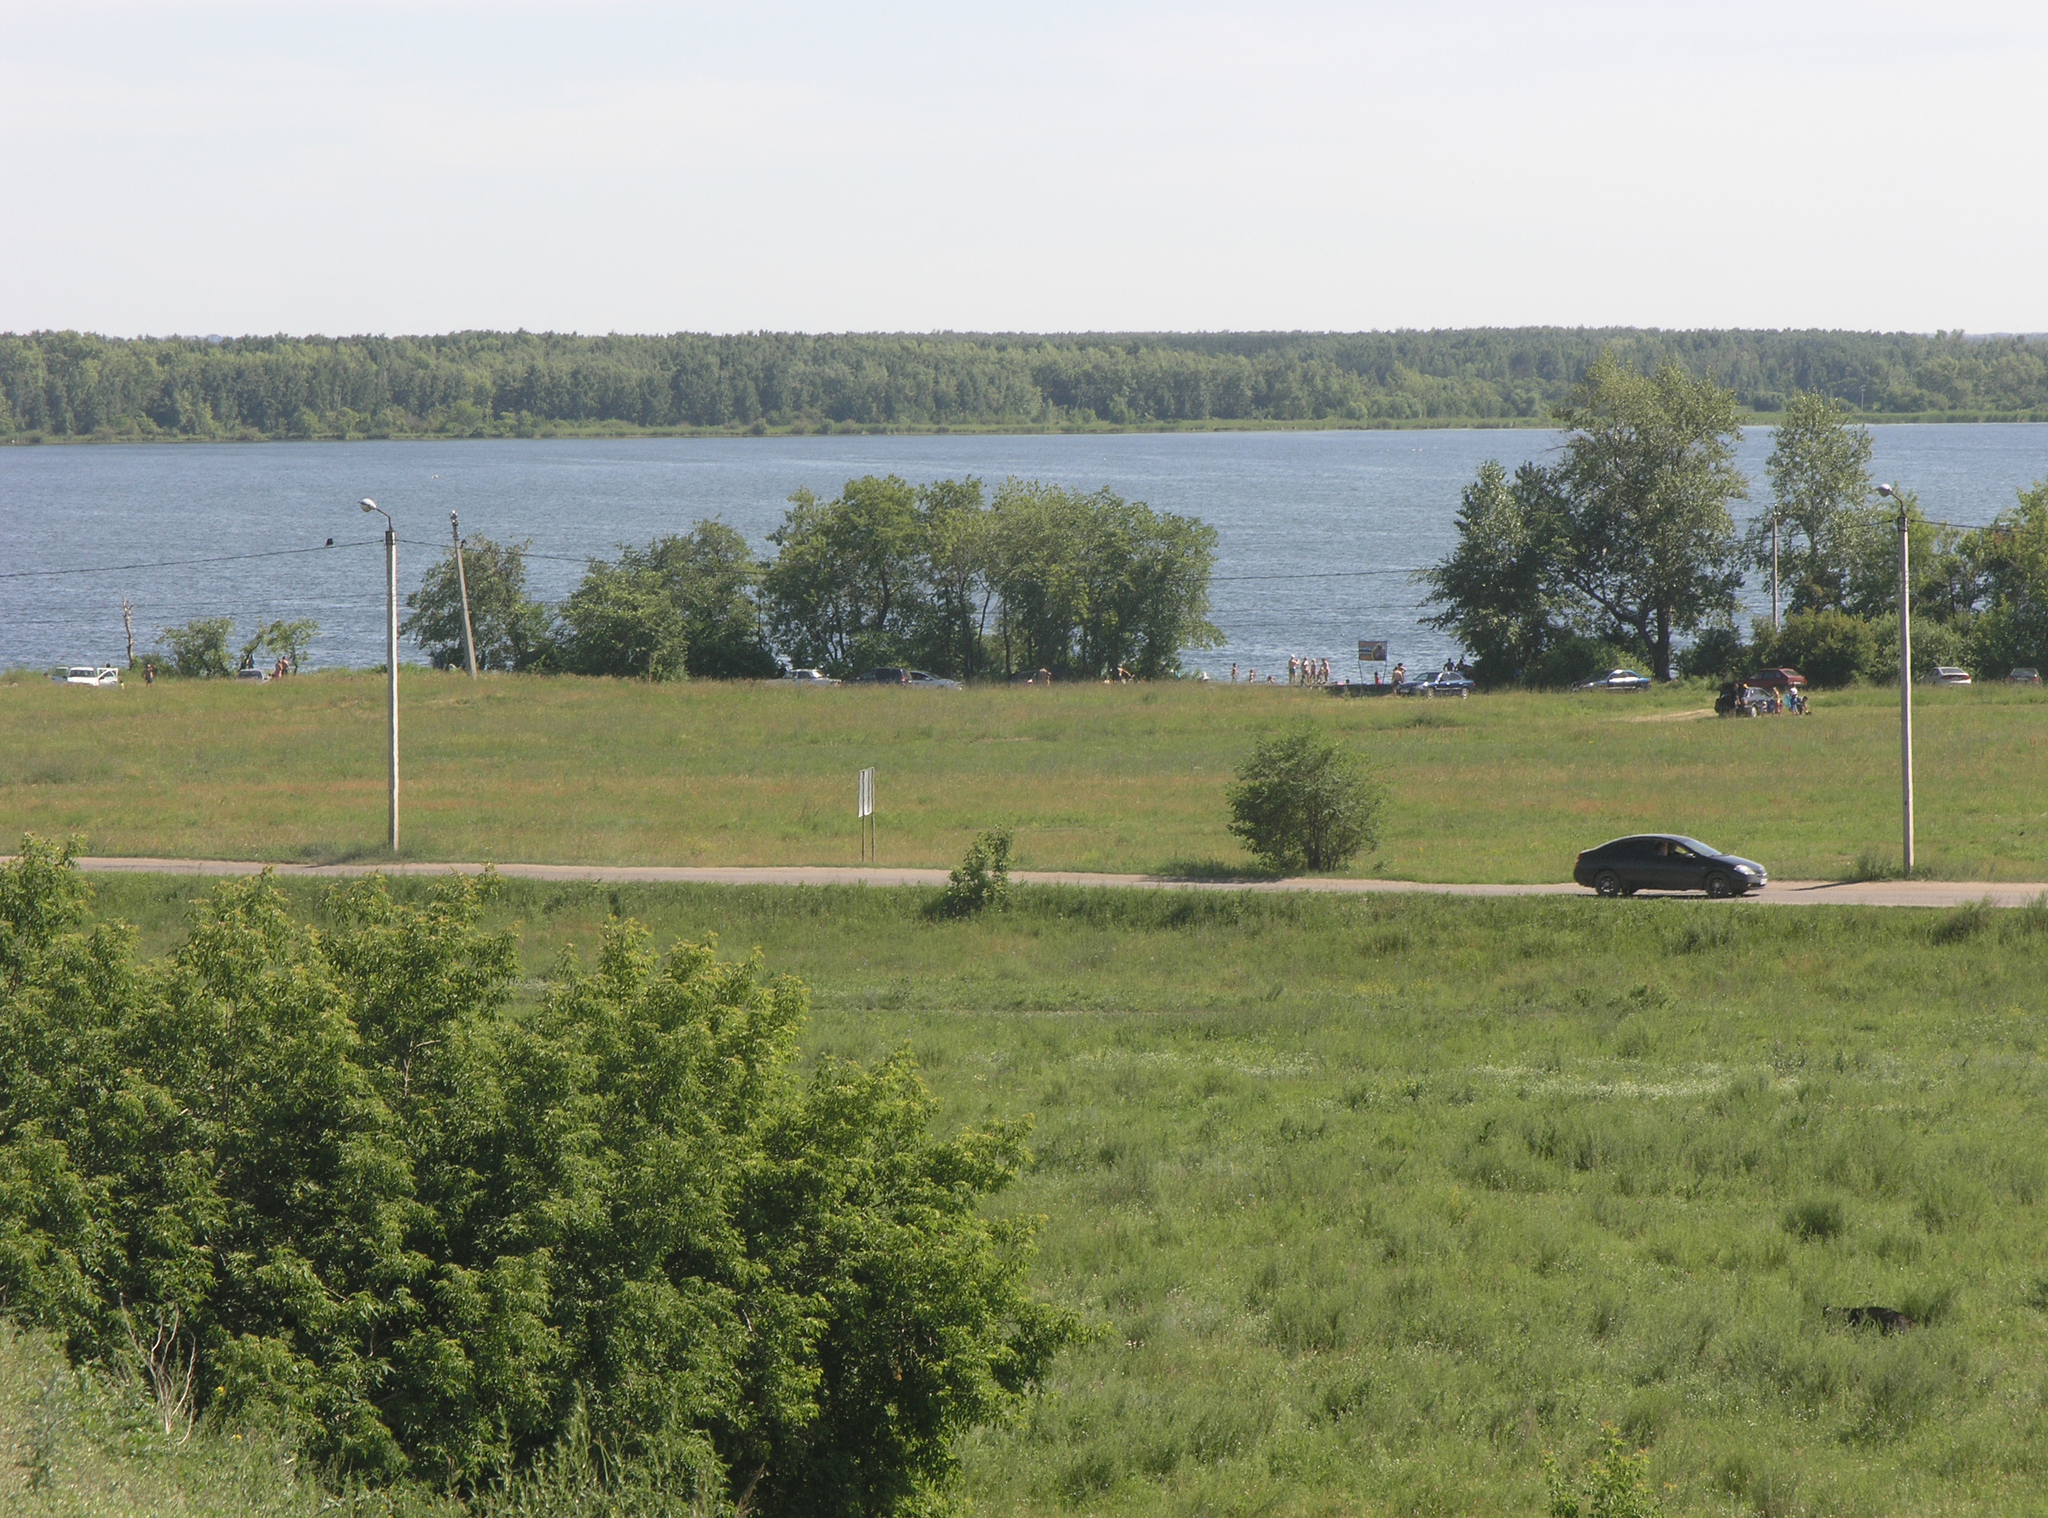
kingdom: Plantae
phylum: Tracheophyta
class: Magnoliopsida
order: Sapindales
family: Sapindaceae
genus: Acer
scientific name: Acer negundo
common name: Ashleaf maple
